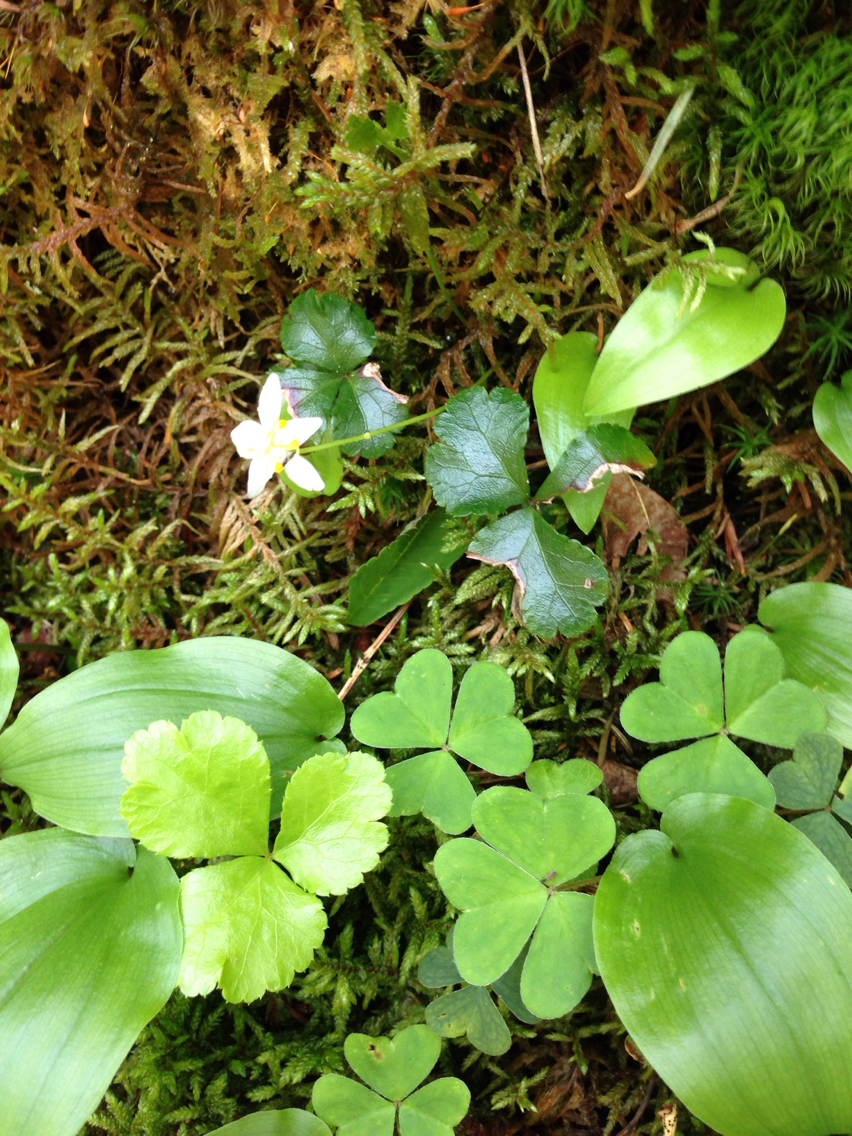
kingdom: Plantae
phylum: Tracheophyta
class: Magnoliopsida
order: Ranunculales
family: Ranunculaceae
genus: Coptis
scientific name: Coptis trifolia
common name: Canker-root
